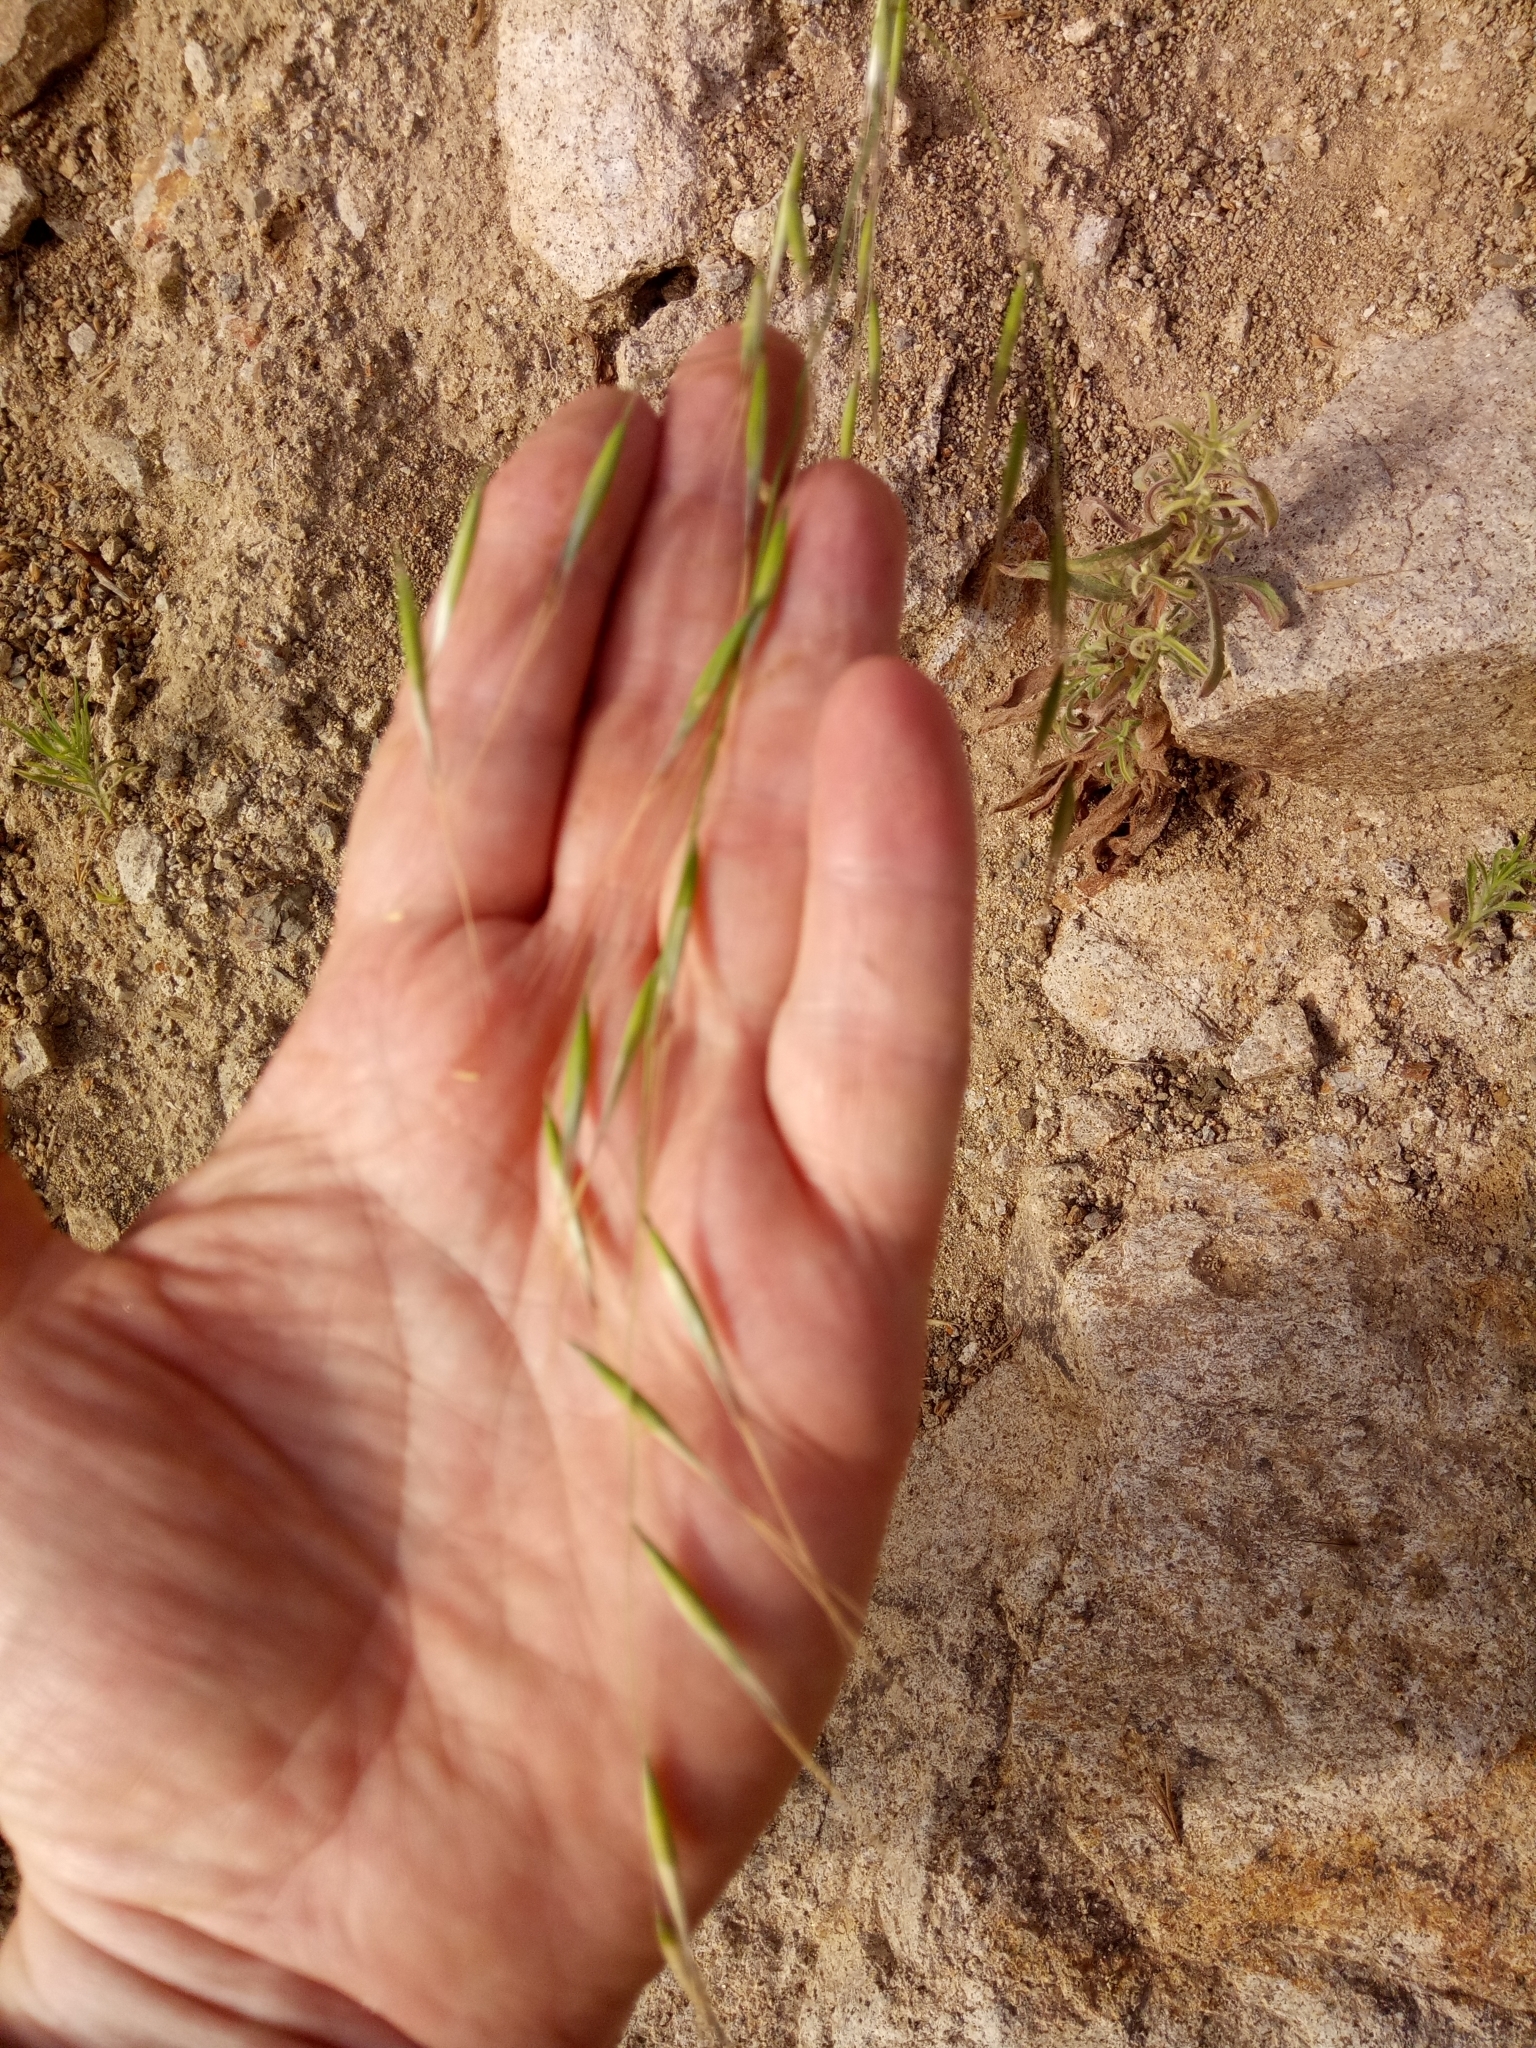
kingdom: Plantae
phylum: Tracheophyta
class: Liliopsida
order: Poales
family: Poaceae
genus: Avena
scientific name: Avena barbata
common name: Slender oat
